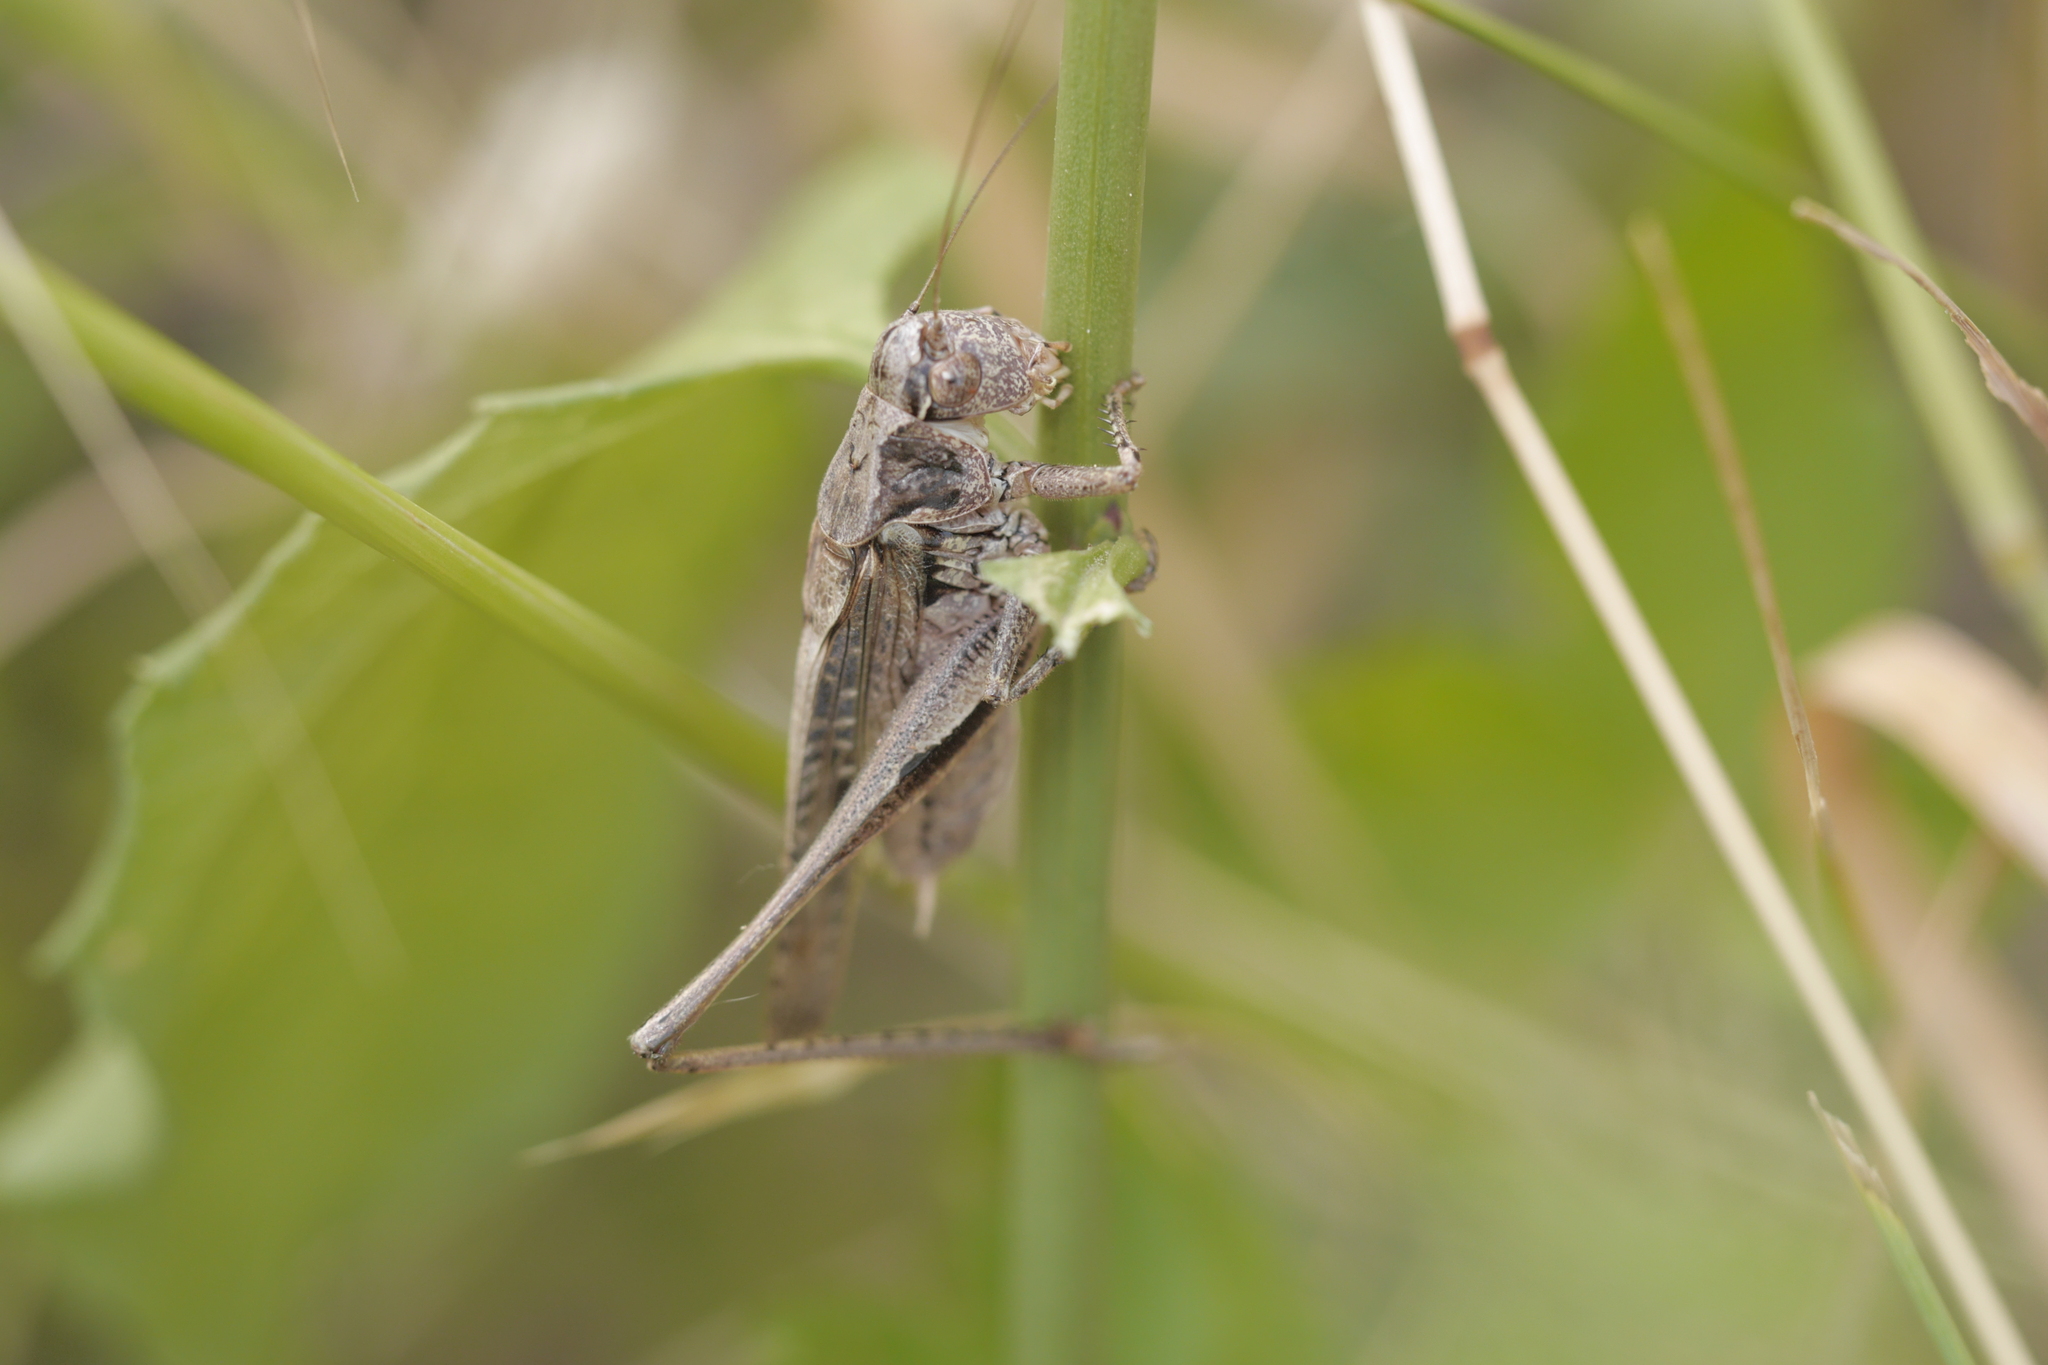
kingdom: Animalia
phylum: Arthropoda
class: Insecta
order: Orthoptera
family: Tettigoniidae
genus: Platycleis
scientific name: Platycleis albopunctata
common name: Grey bush-cricket
